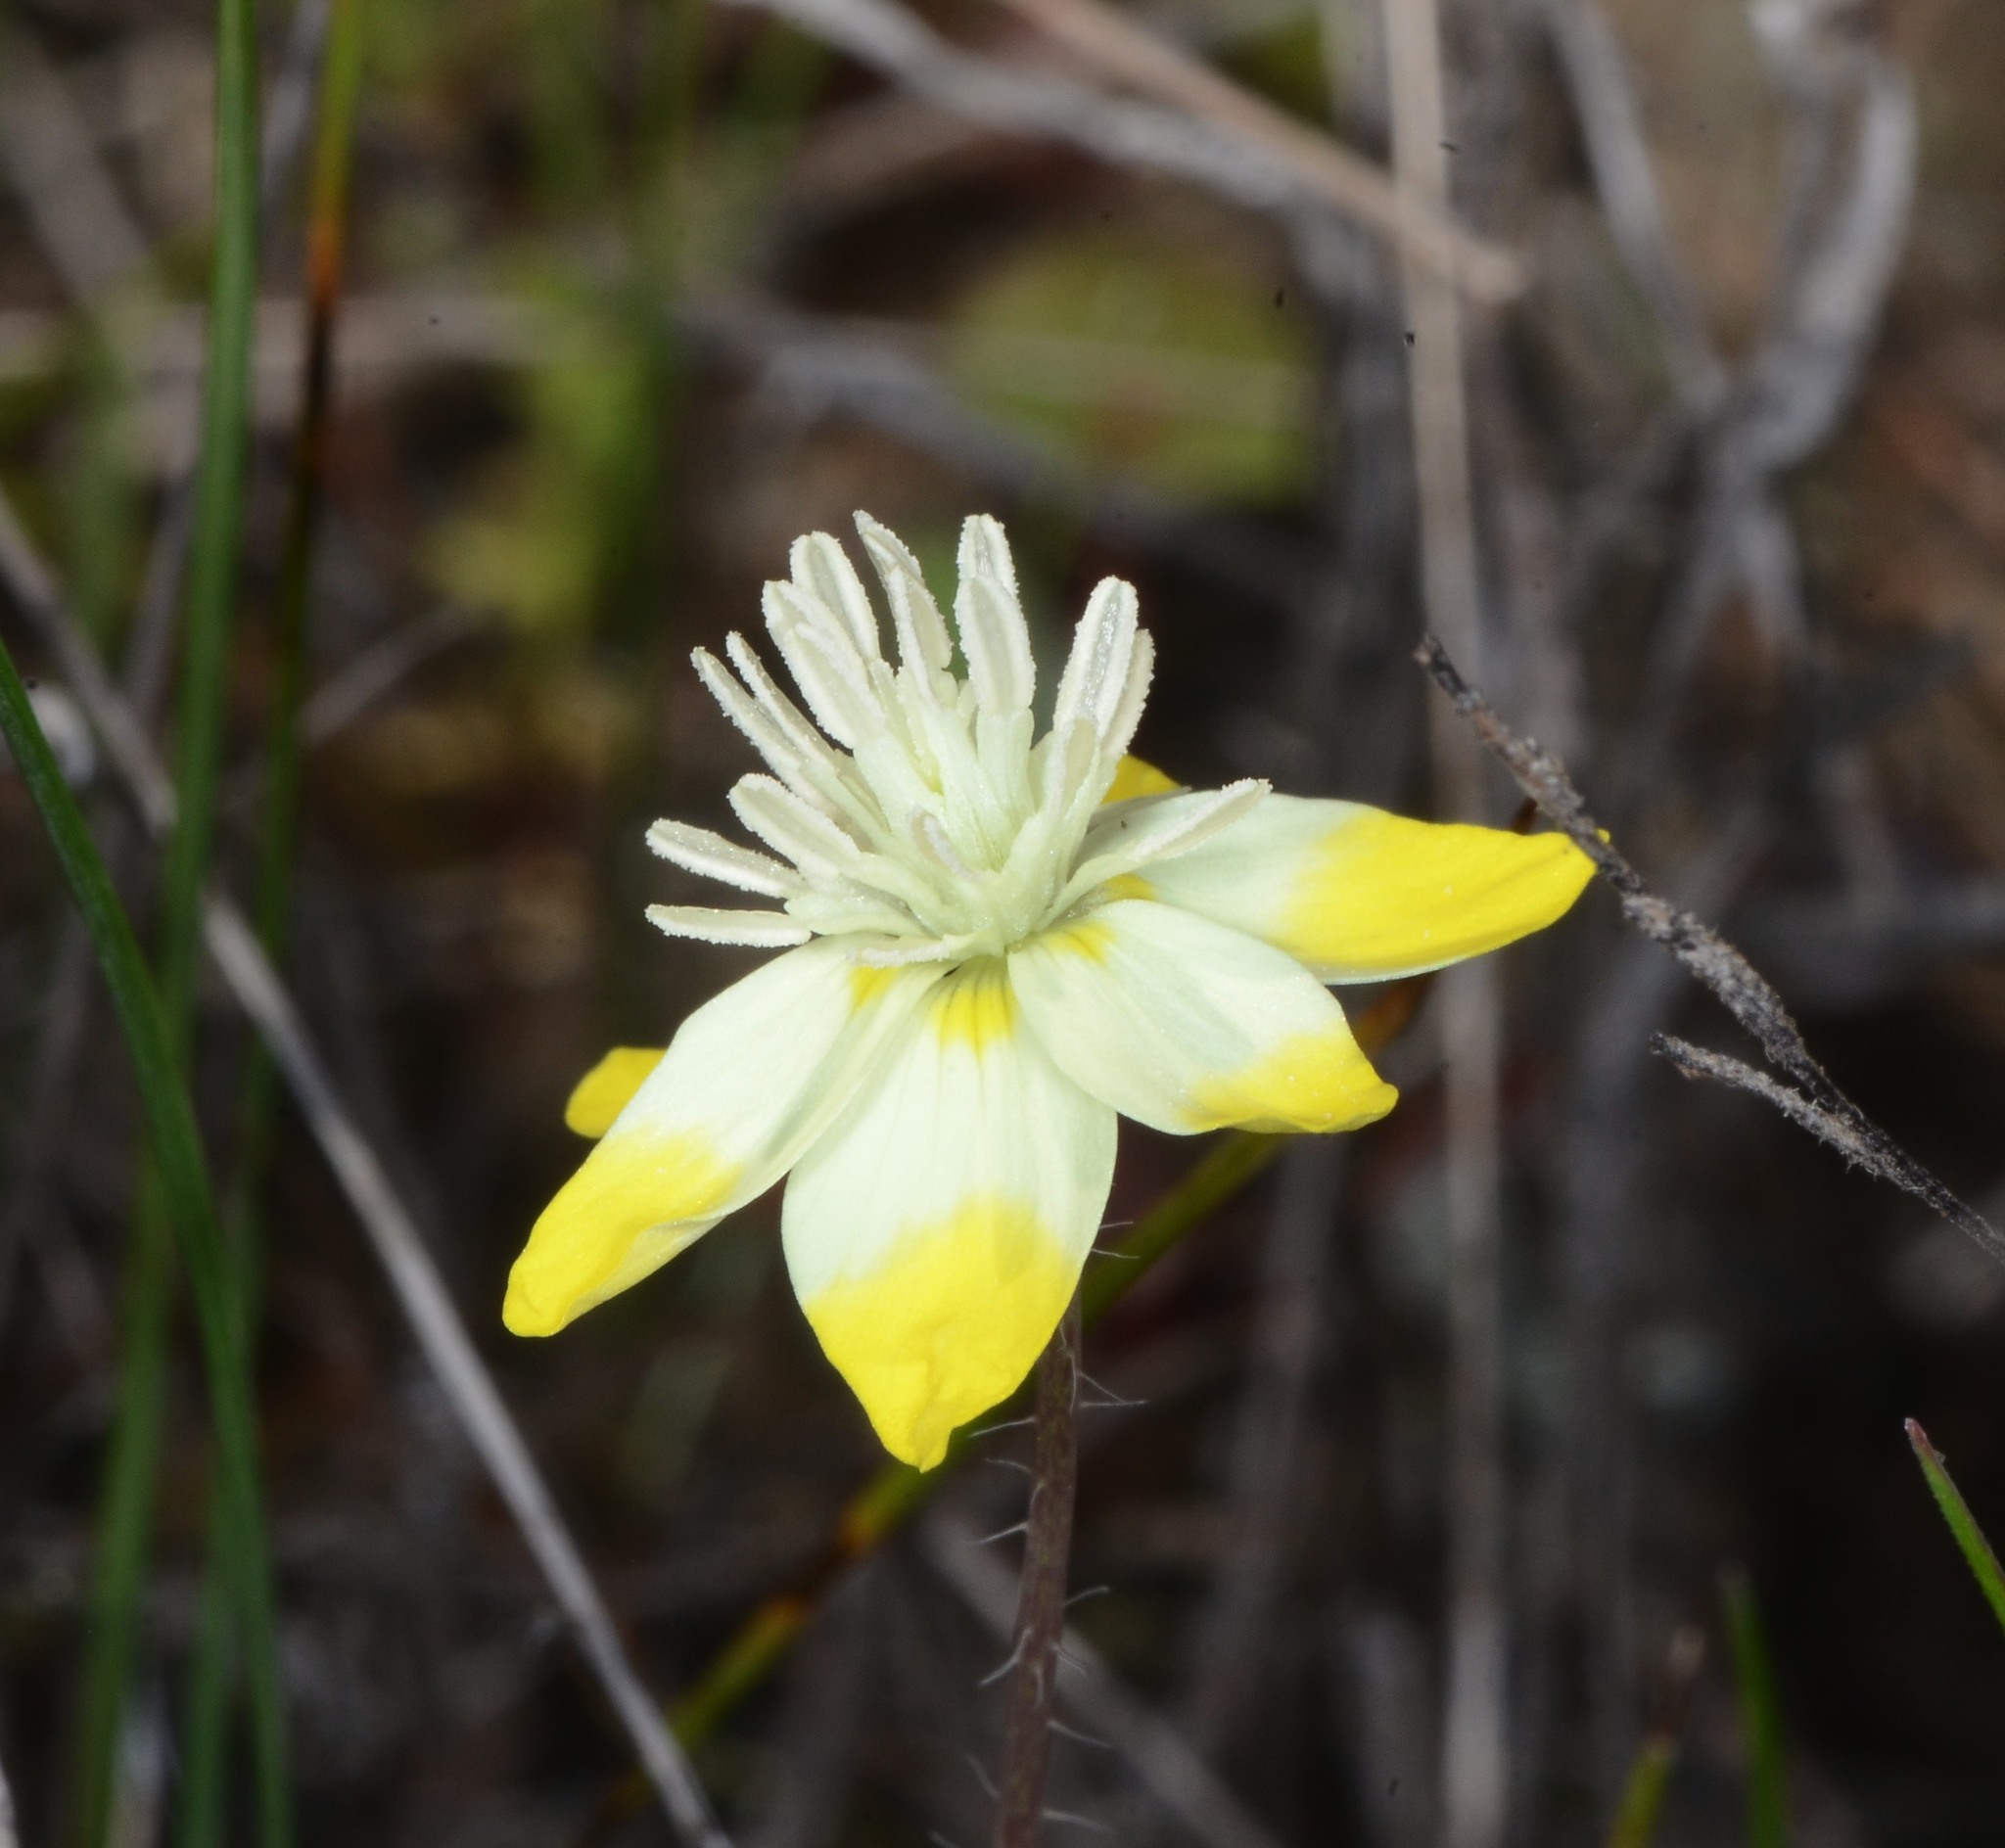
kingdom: Plantae
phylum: Tracheophyta
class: Magnoliopsida
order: Ranunculales
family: Papaveraceae
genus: Platystemon
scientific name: Platystemon californicus
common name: Cream-cups
